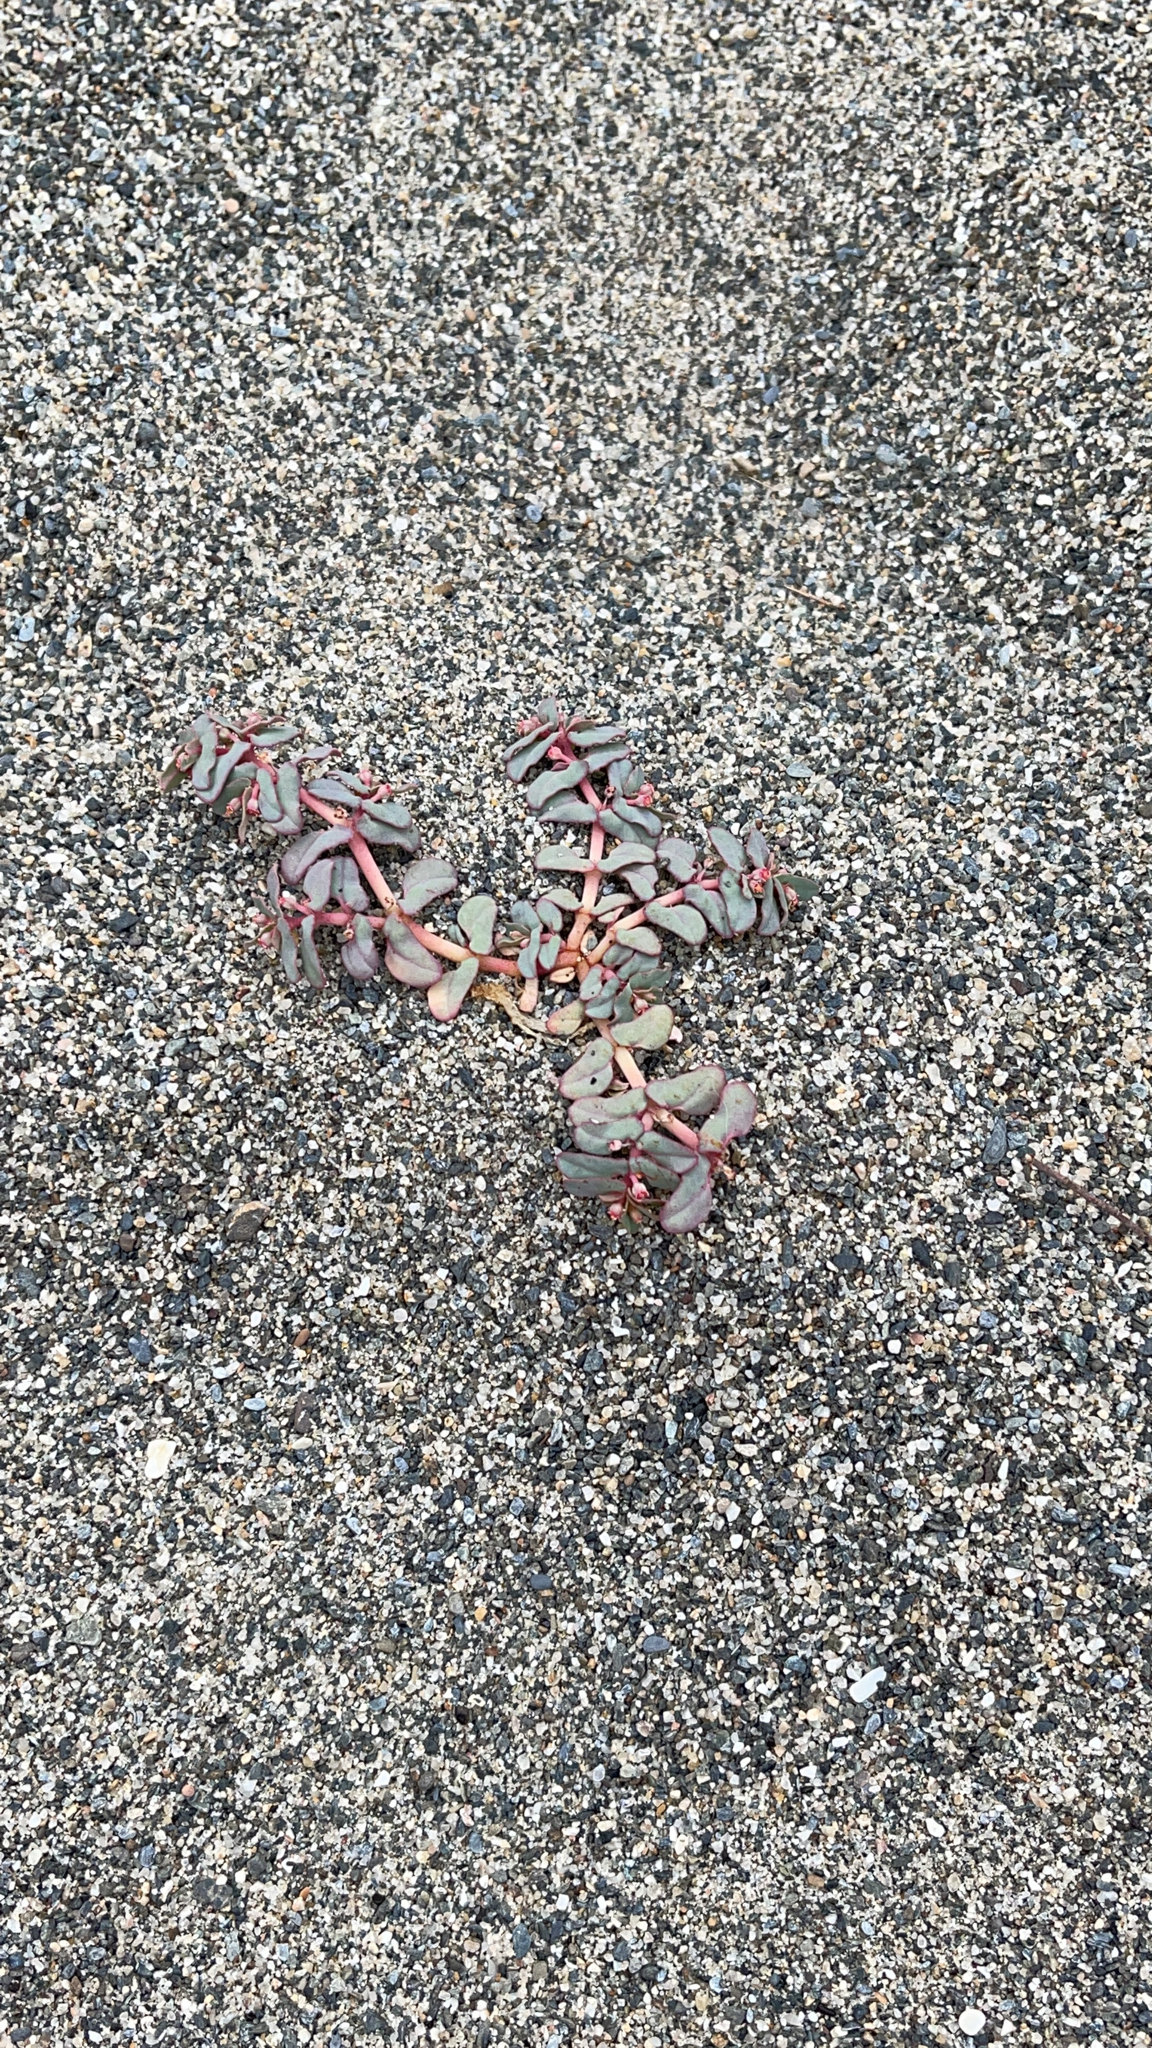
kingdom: Plantae
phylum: Tracheophyta
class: Magnoliopsida
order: Malpighiales
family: Euphorbiaceae
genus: Euphorbia
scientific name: Euphorbia peplis
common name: Purple spurge
